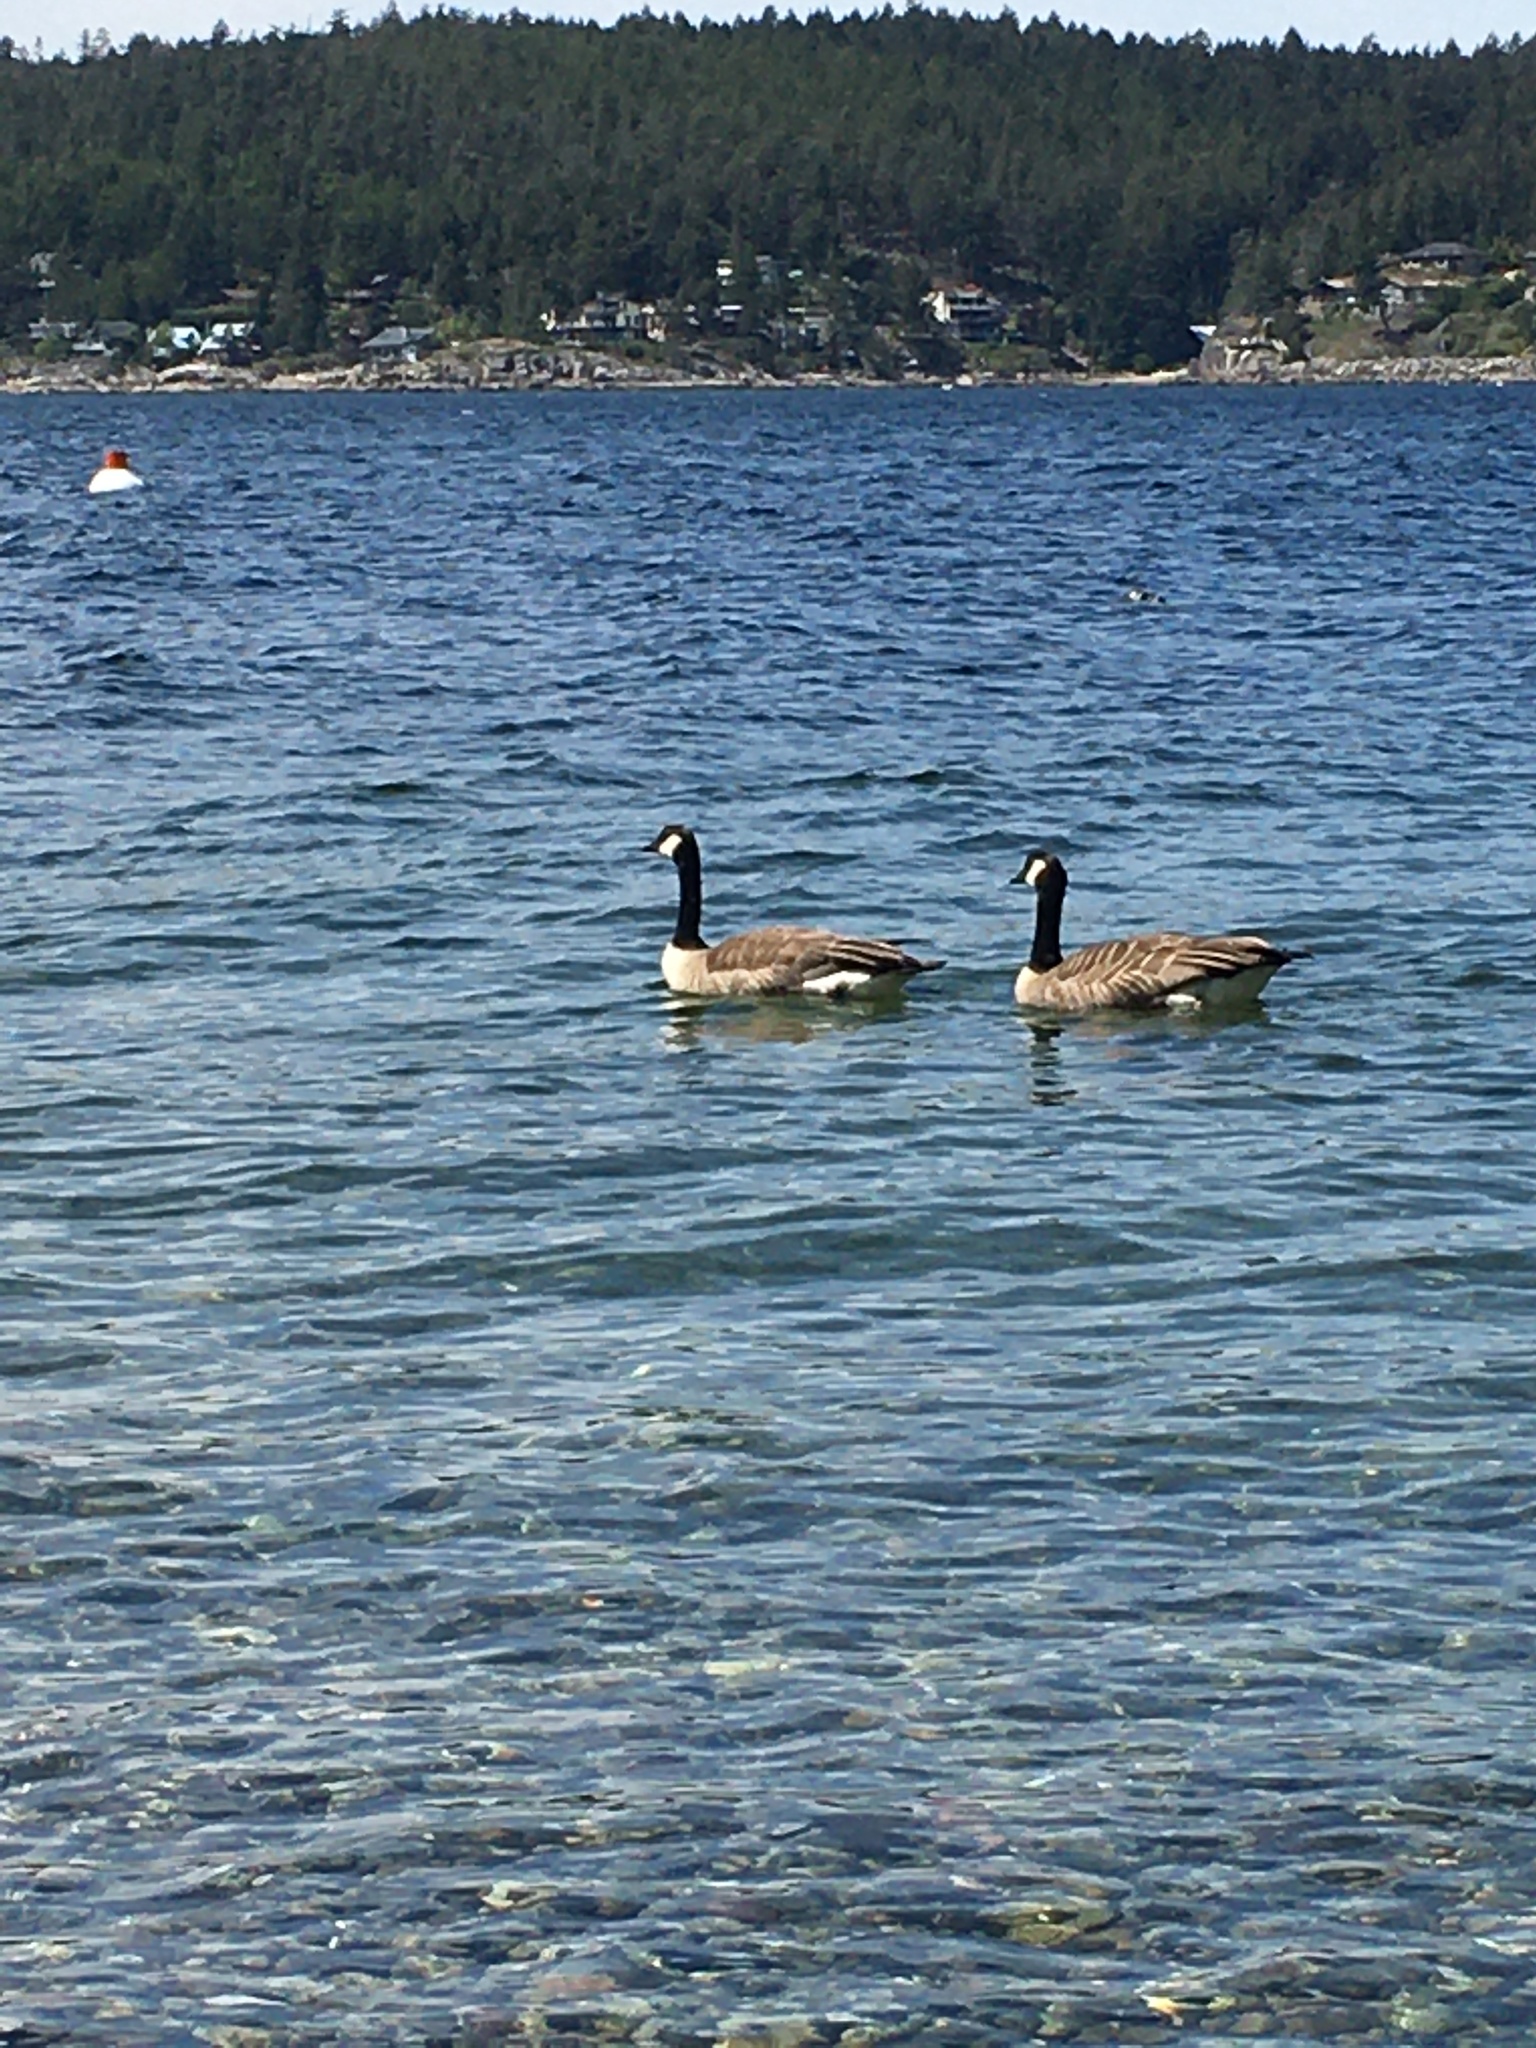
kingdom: Animalia
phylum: Chordata
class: Aves
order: Anseriformes
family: Anatidae
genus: Branta
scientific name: Branta canadensis
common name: Canada goose
